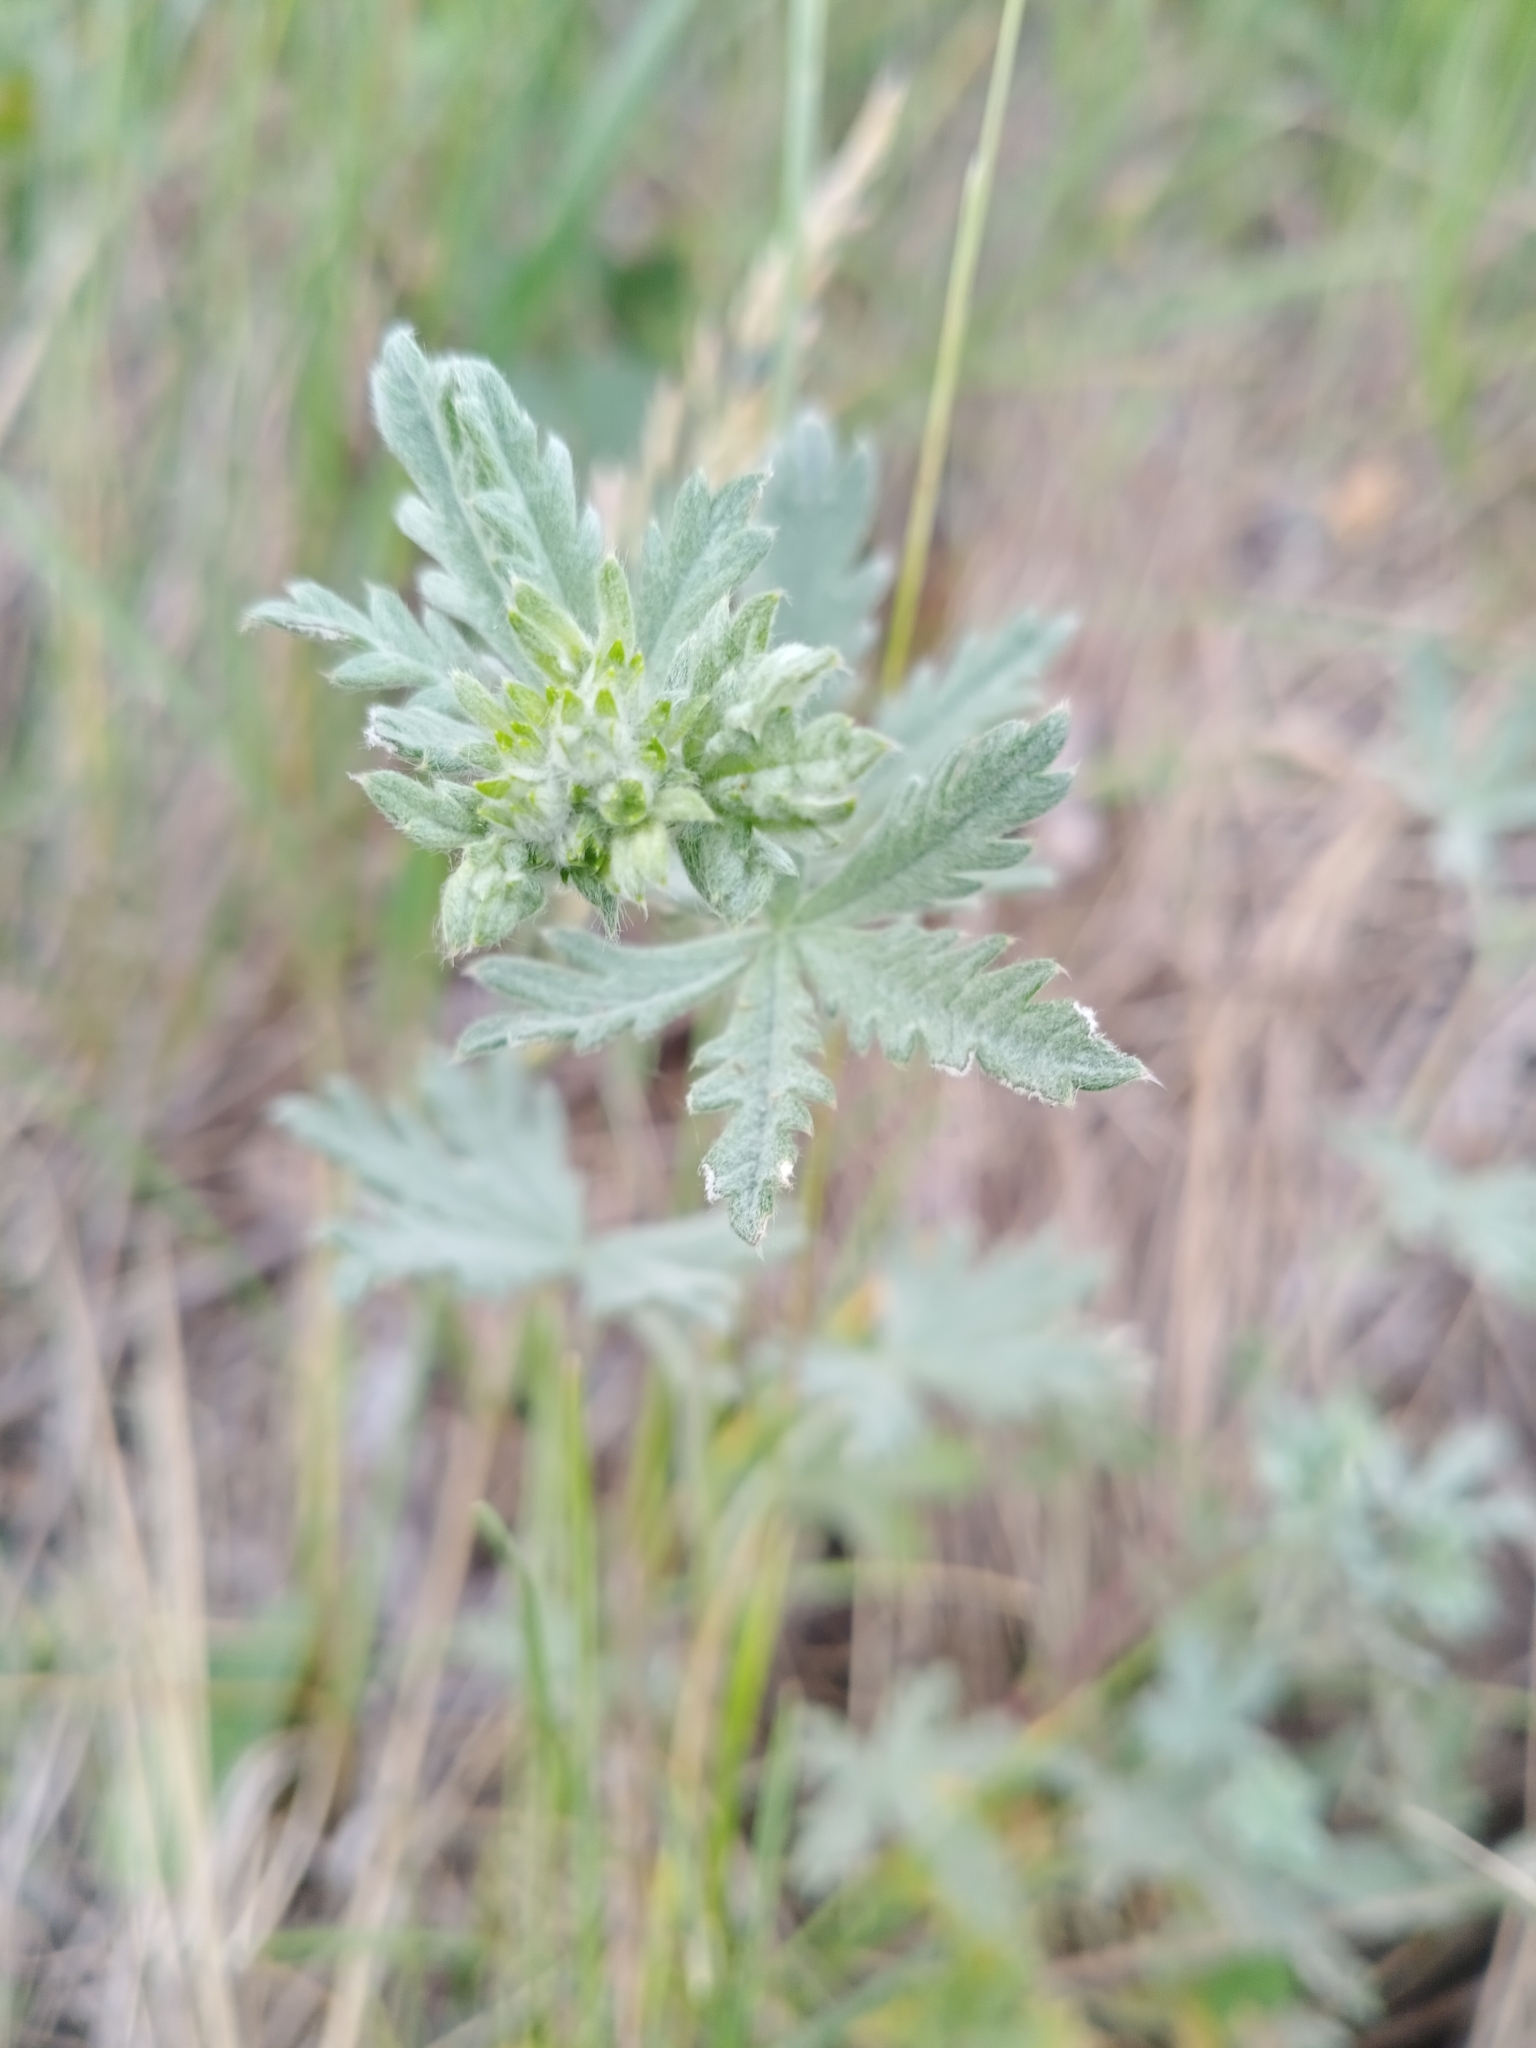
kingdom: Plantae
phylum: Tracheophyta
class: Magnoliopsida
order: Rosales
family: Rosaceae
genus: Potentilla
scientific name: Potentilla argentea
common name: Hoary cinquefoil
